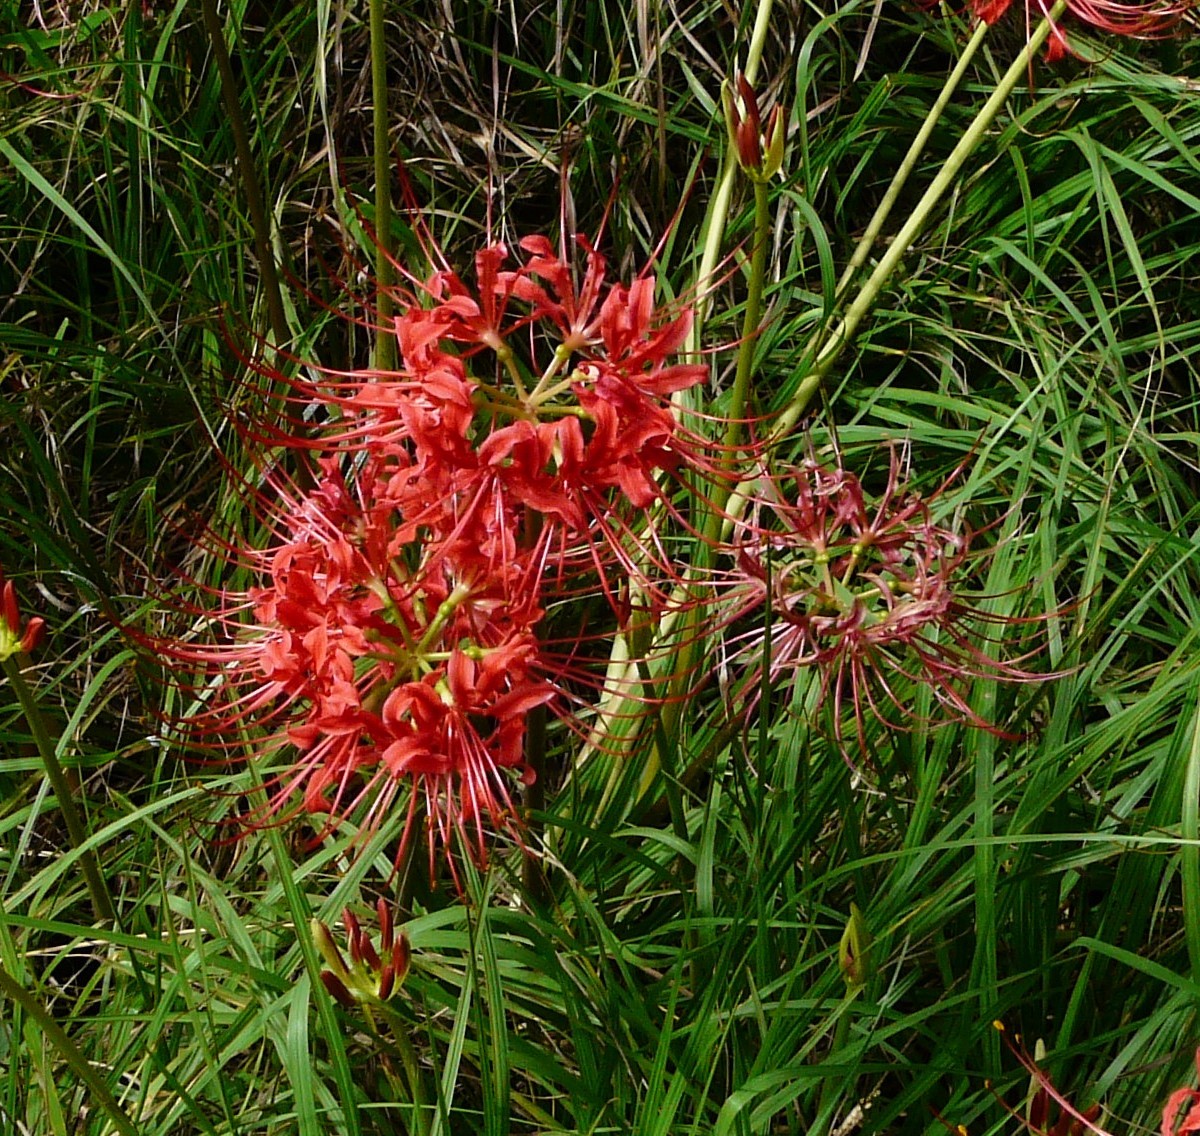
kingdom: Plantae
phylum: Tracheophyta
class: Liliopsida
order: Asparagales
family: Amaryllidaceae
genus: Lycoris
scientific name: Lycoris radiata
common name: Red spider lily
